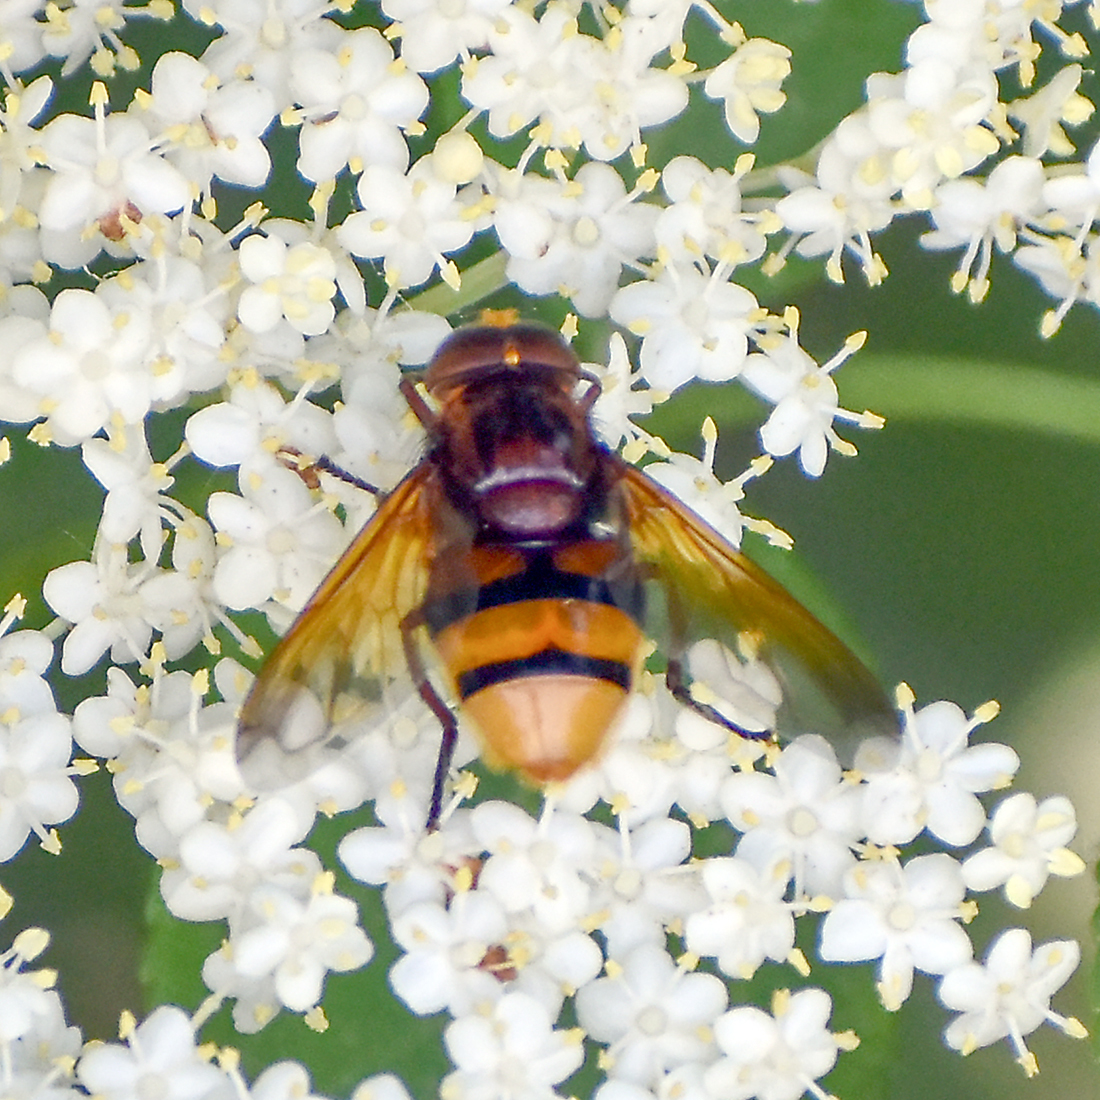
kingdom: Animalia
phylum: Arthropoda
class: Insecta
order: Diptera
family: Syrphidae
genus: Volucella
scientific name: Volucella zonaria
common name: Hornet hoverfly
